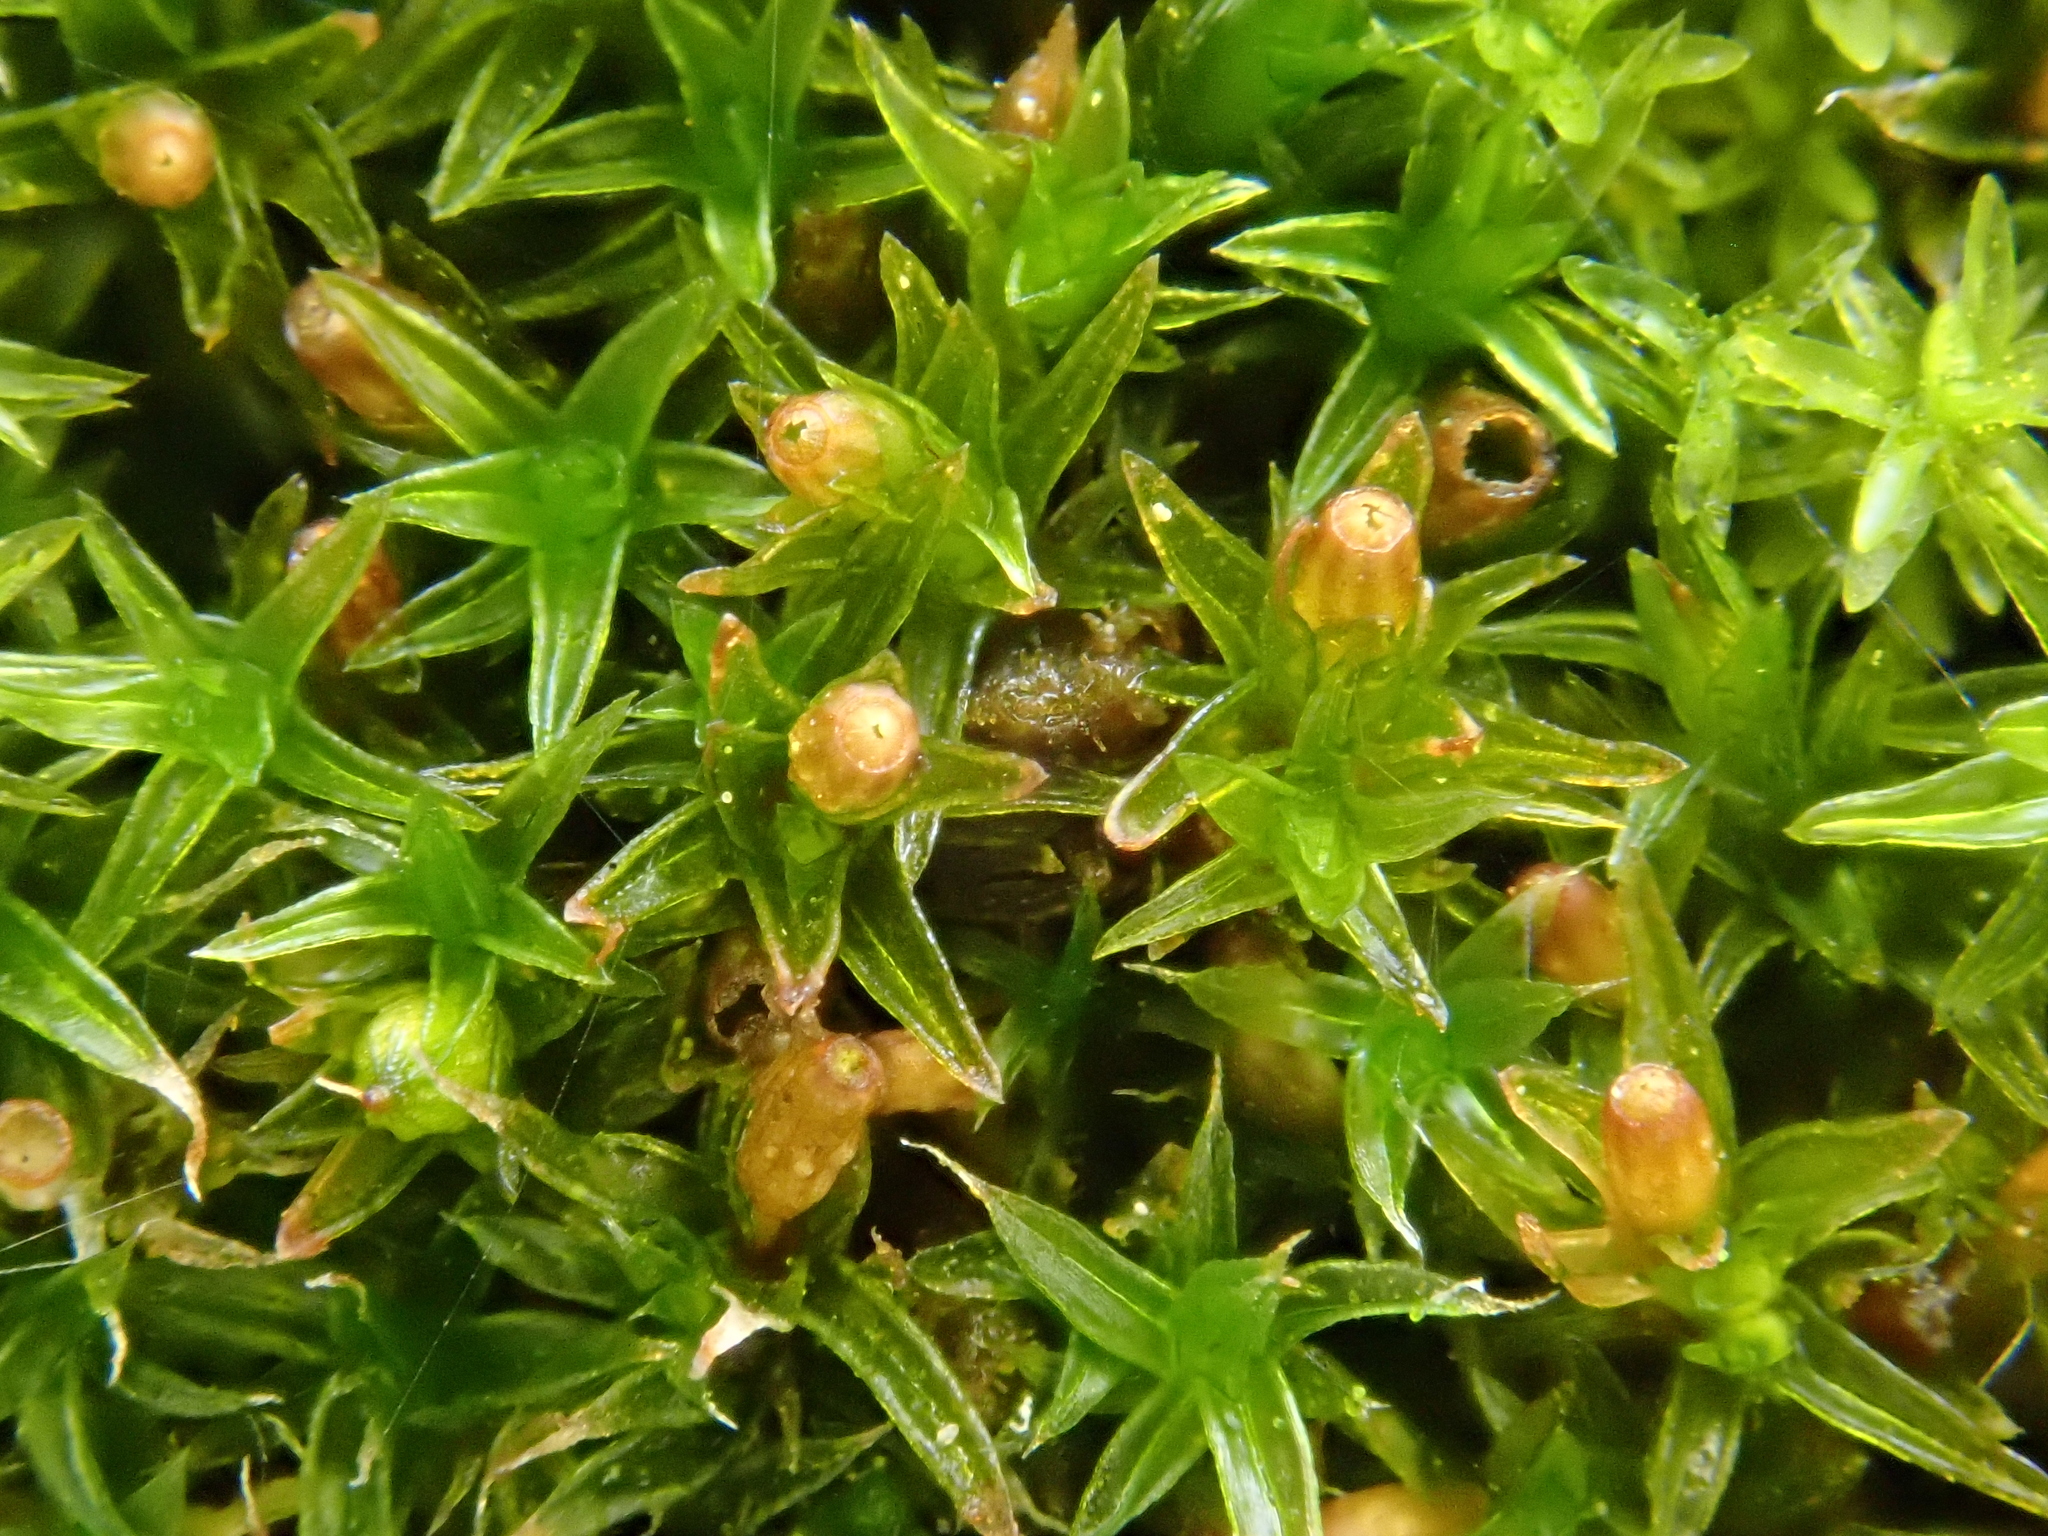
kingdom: Plantae
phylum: Bryophyta
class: Bryopsida
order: Orthotrichales
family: Orthotrichaceae
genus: Orthotrichum
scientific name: Orthotrichum diaphanum
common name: White-tipped bristle-moss
